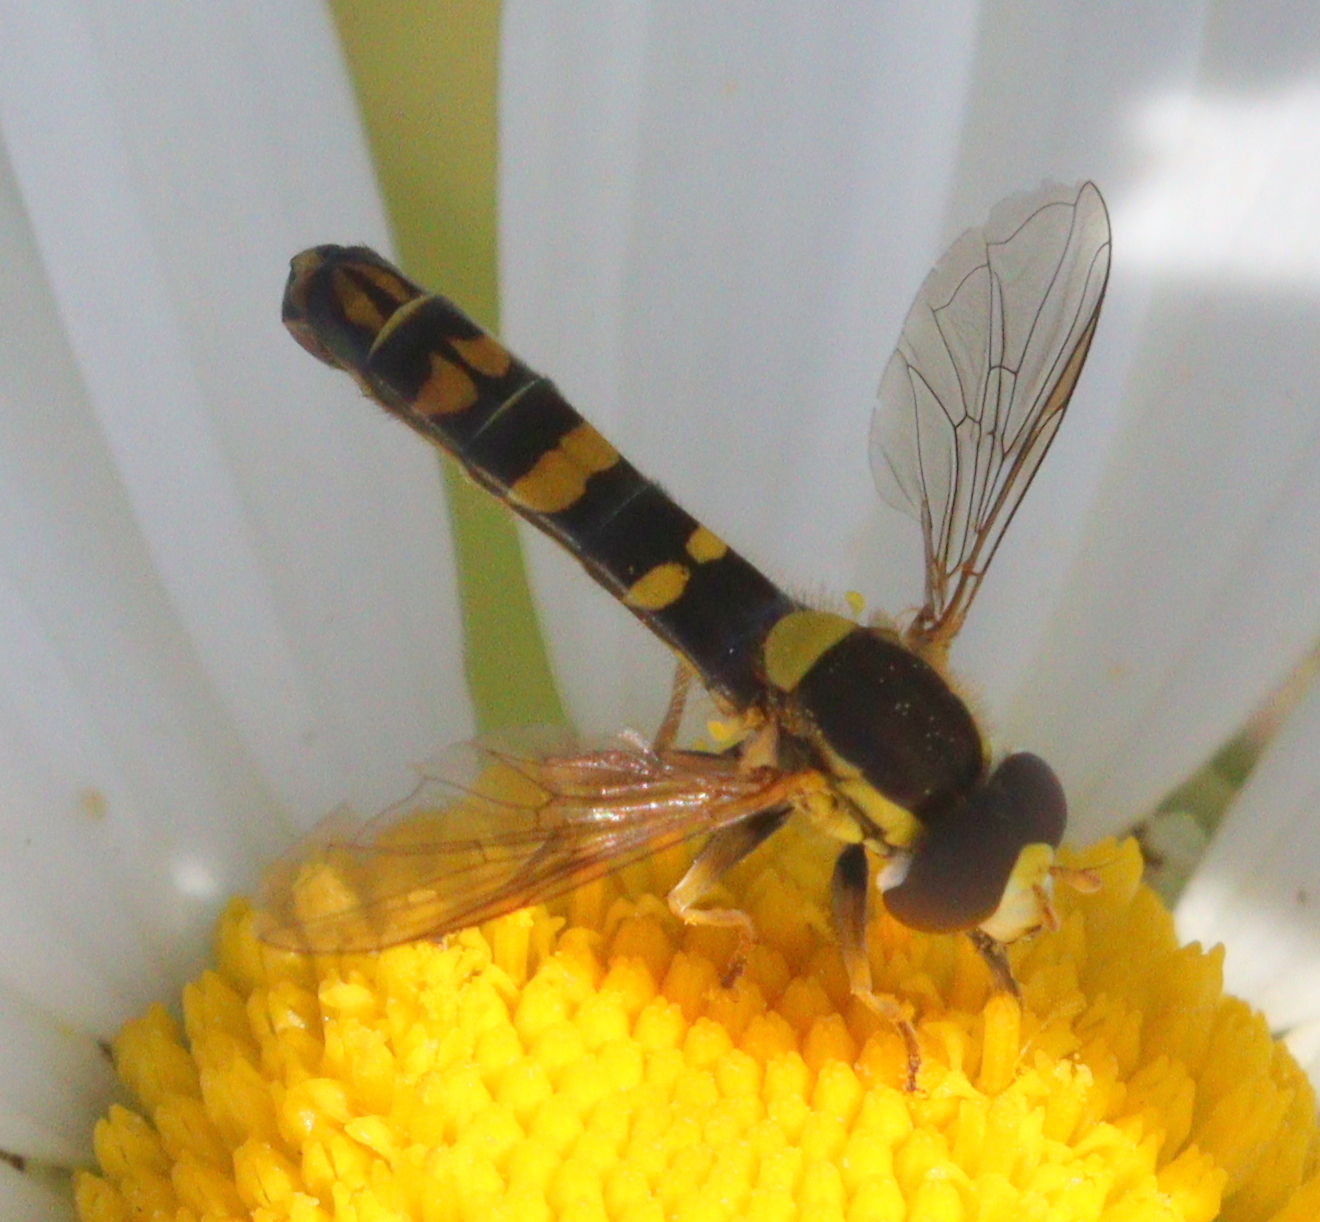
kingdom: Animalia
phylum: Arthropoda
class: Insecta
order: Diptera
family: Syrphidae
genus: Sphaerophoria
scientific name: Sphaerophoria scripta
